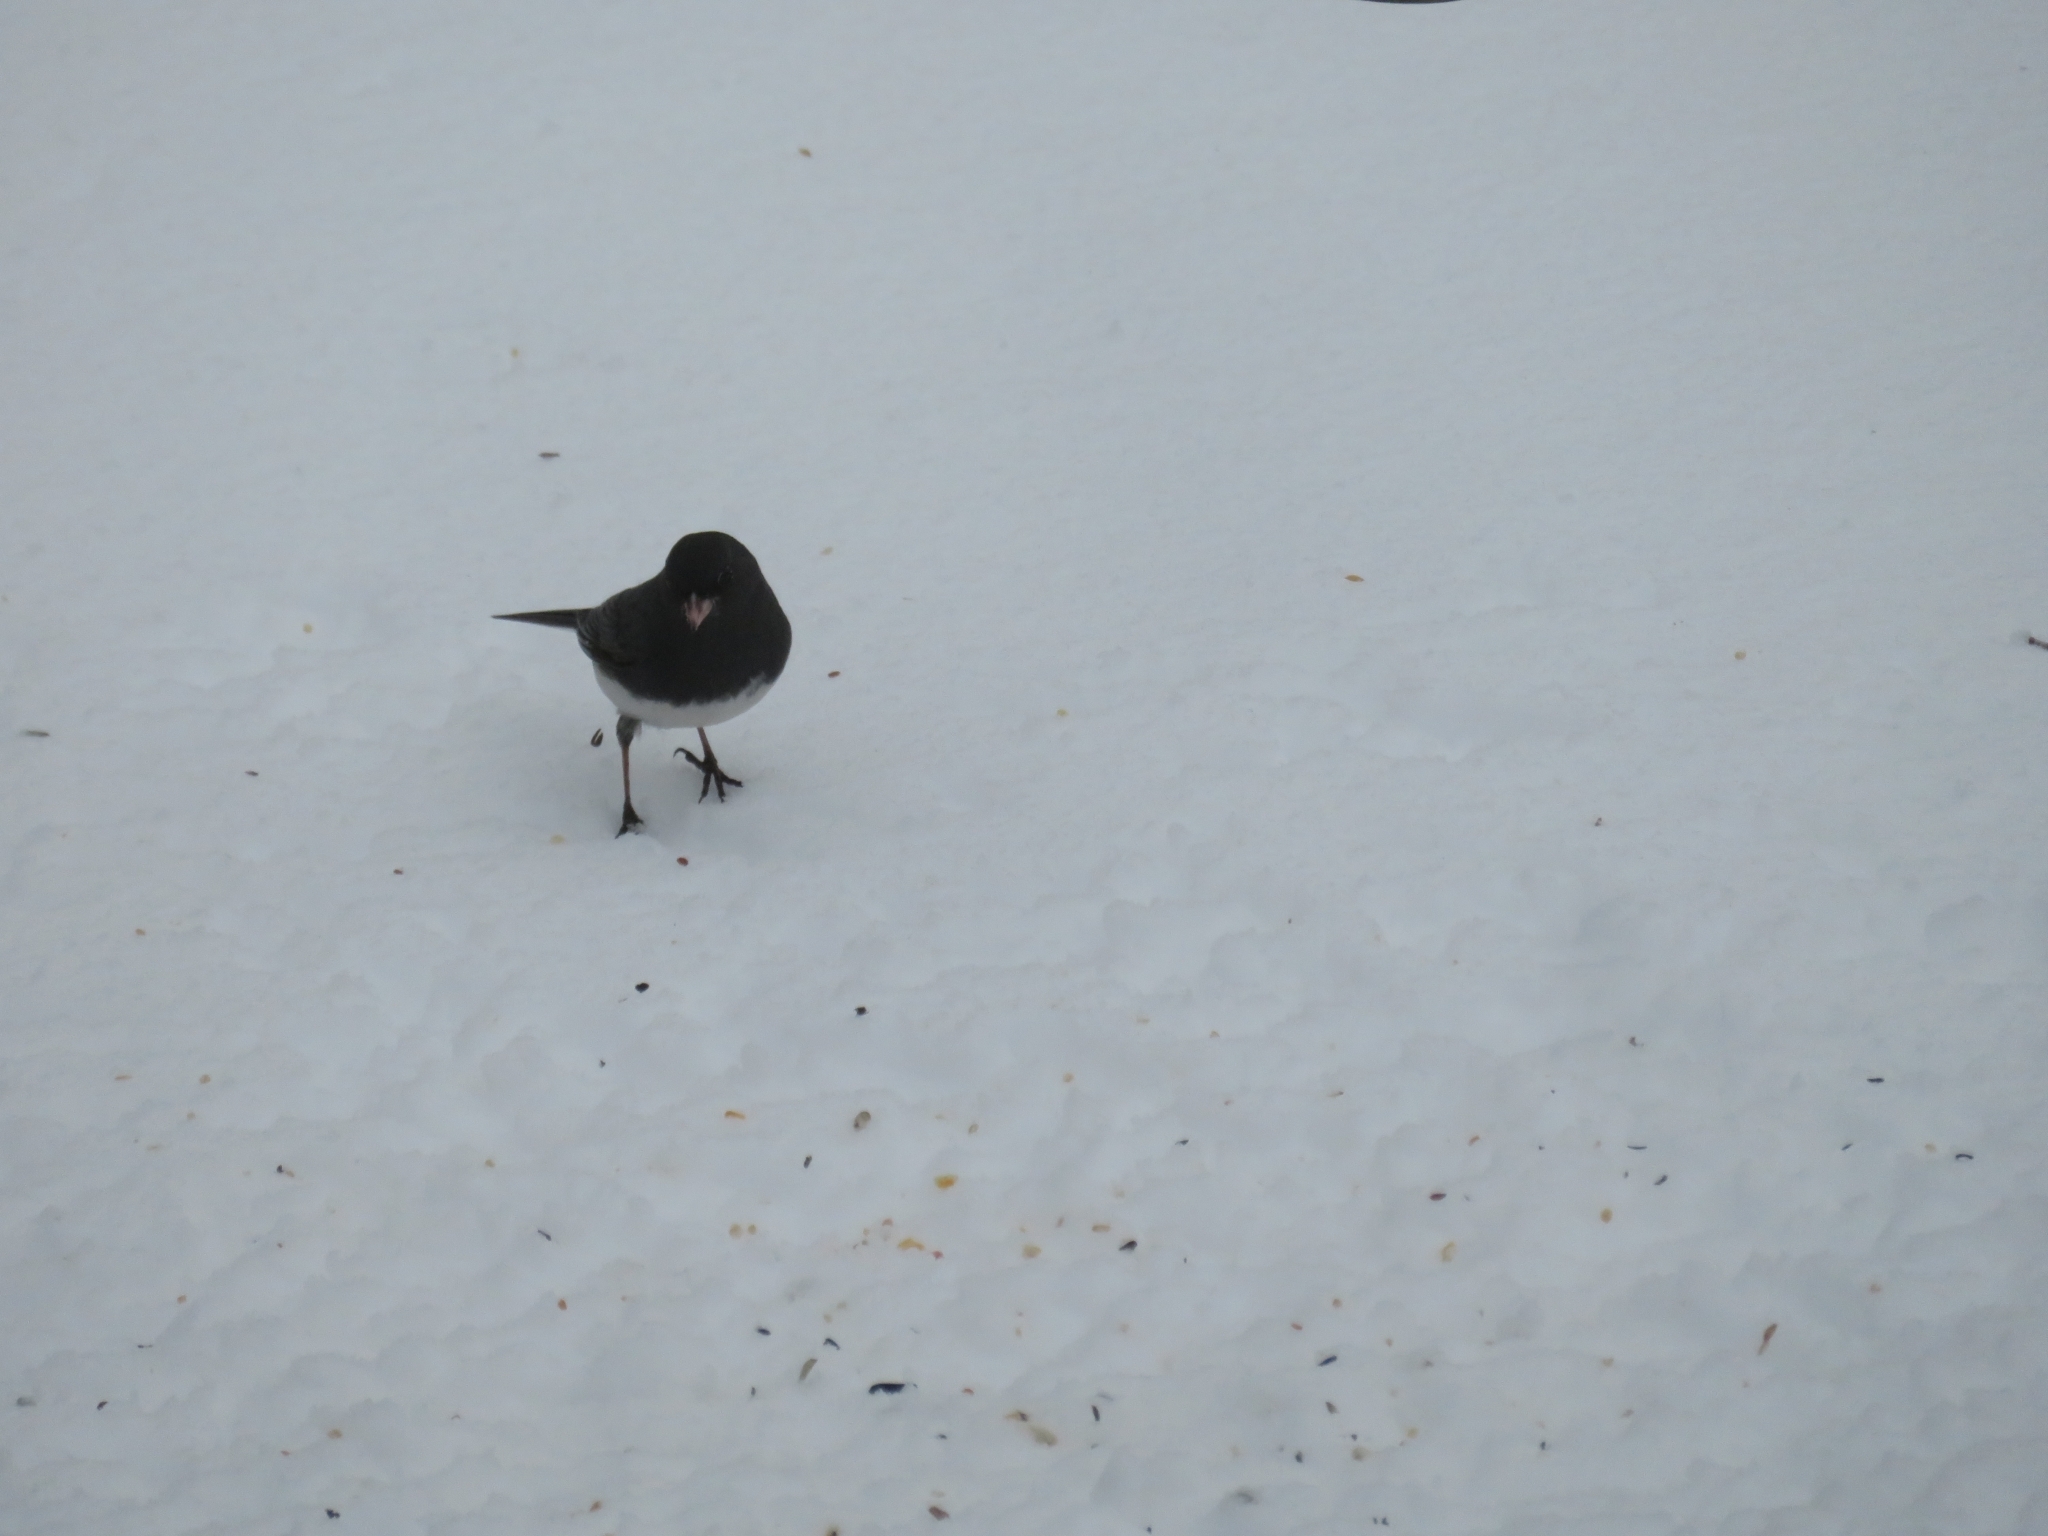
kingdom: Animalia
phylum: Chordata
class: Aves
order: Passeriformes
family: Passerellidae
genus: Junco
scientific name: Junco hyemalis
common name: Dark-eyed junco
